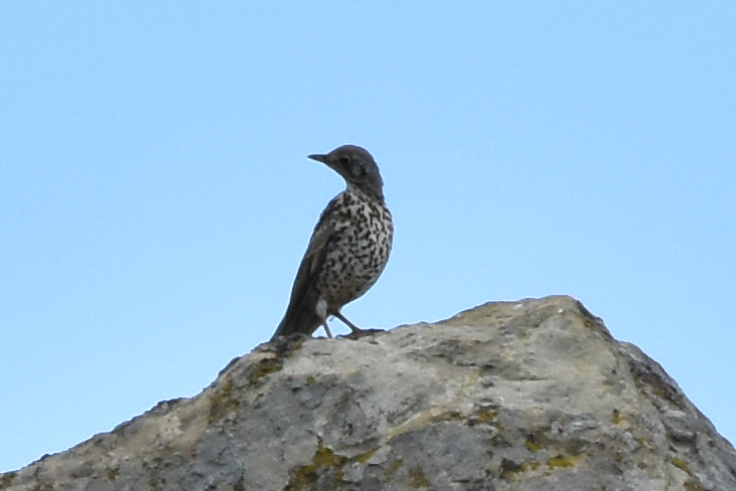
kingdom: Animalia
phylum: Chordata
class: Aves
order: Passeriformes
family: Turdidae
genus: Turdus
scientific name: Turdus viscivorus
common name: Mistle thrush
